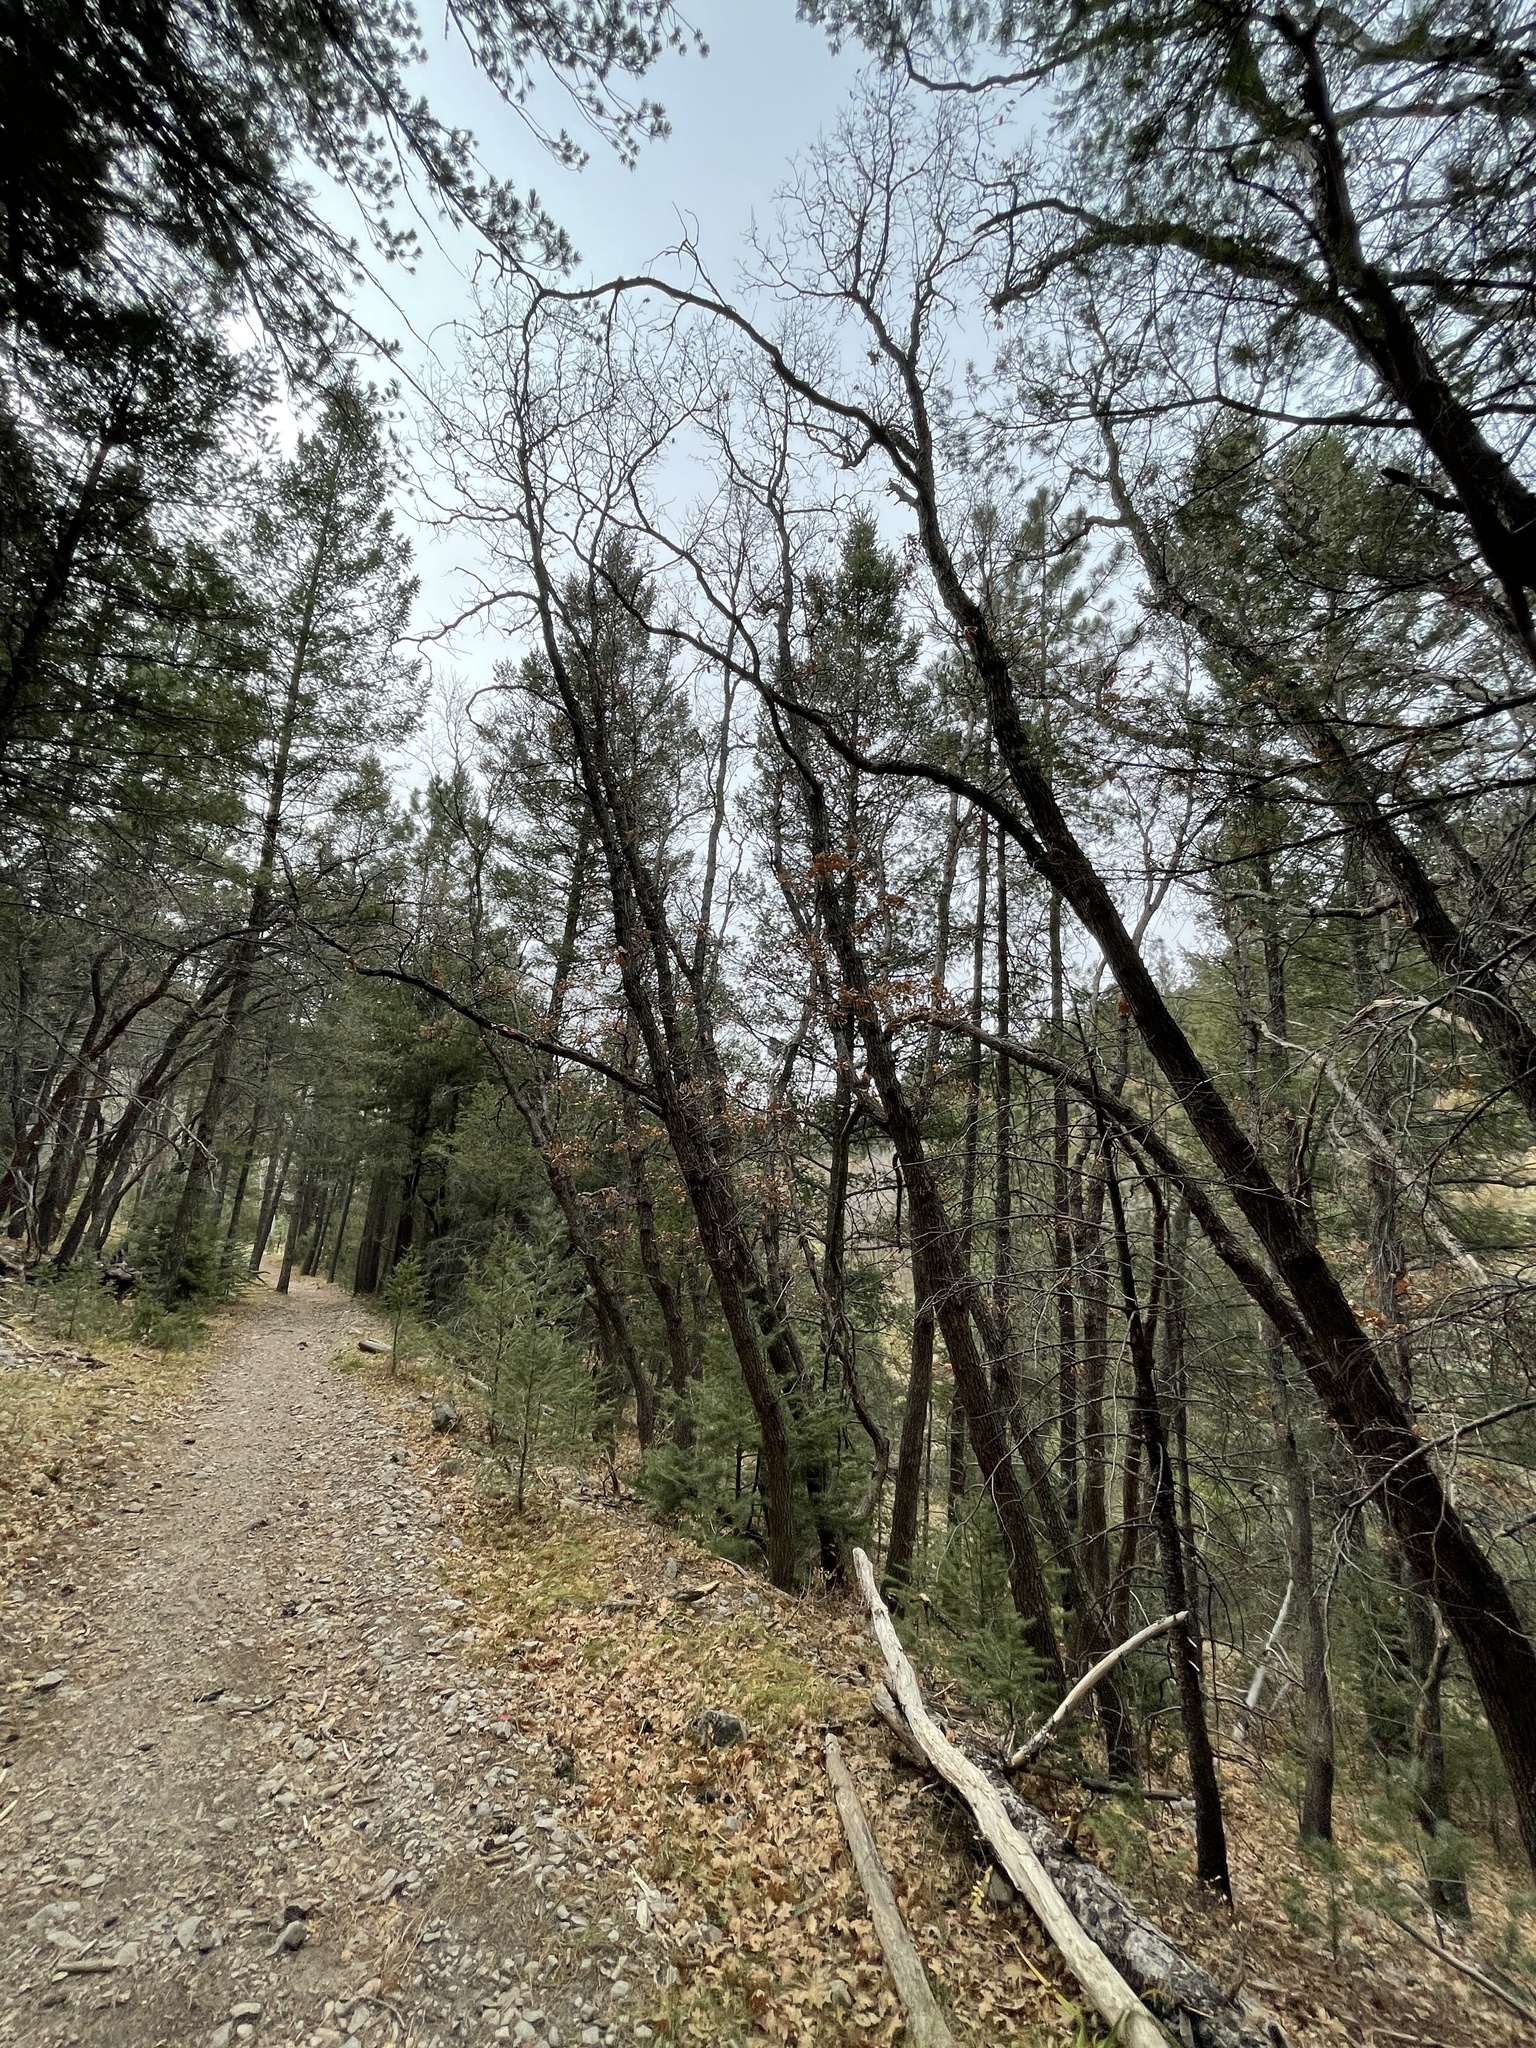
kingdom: Plantae
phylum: Tracheophyta
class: Magnoliopsida
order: Fagales
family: Fagaceae
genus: Quercus
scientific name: Quercus gambelii
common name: Gambel oak
